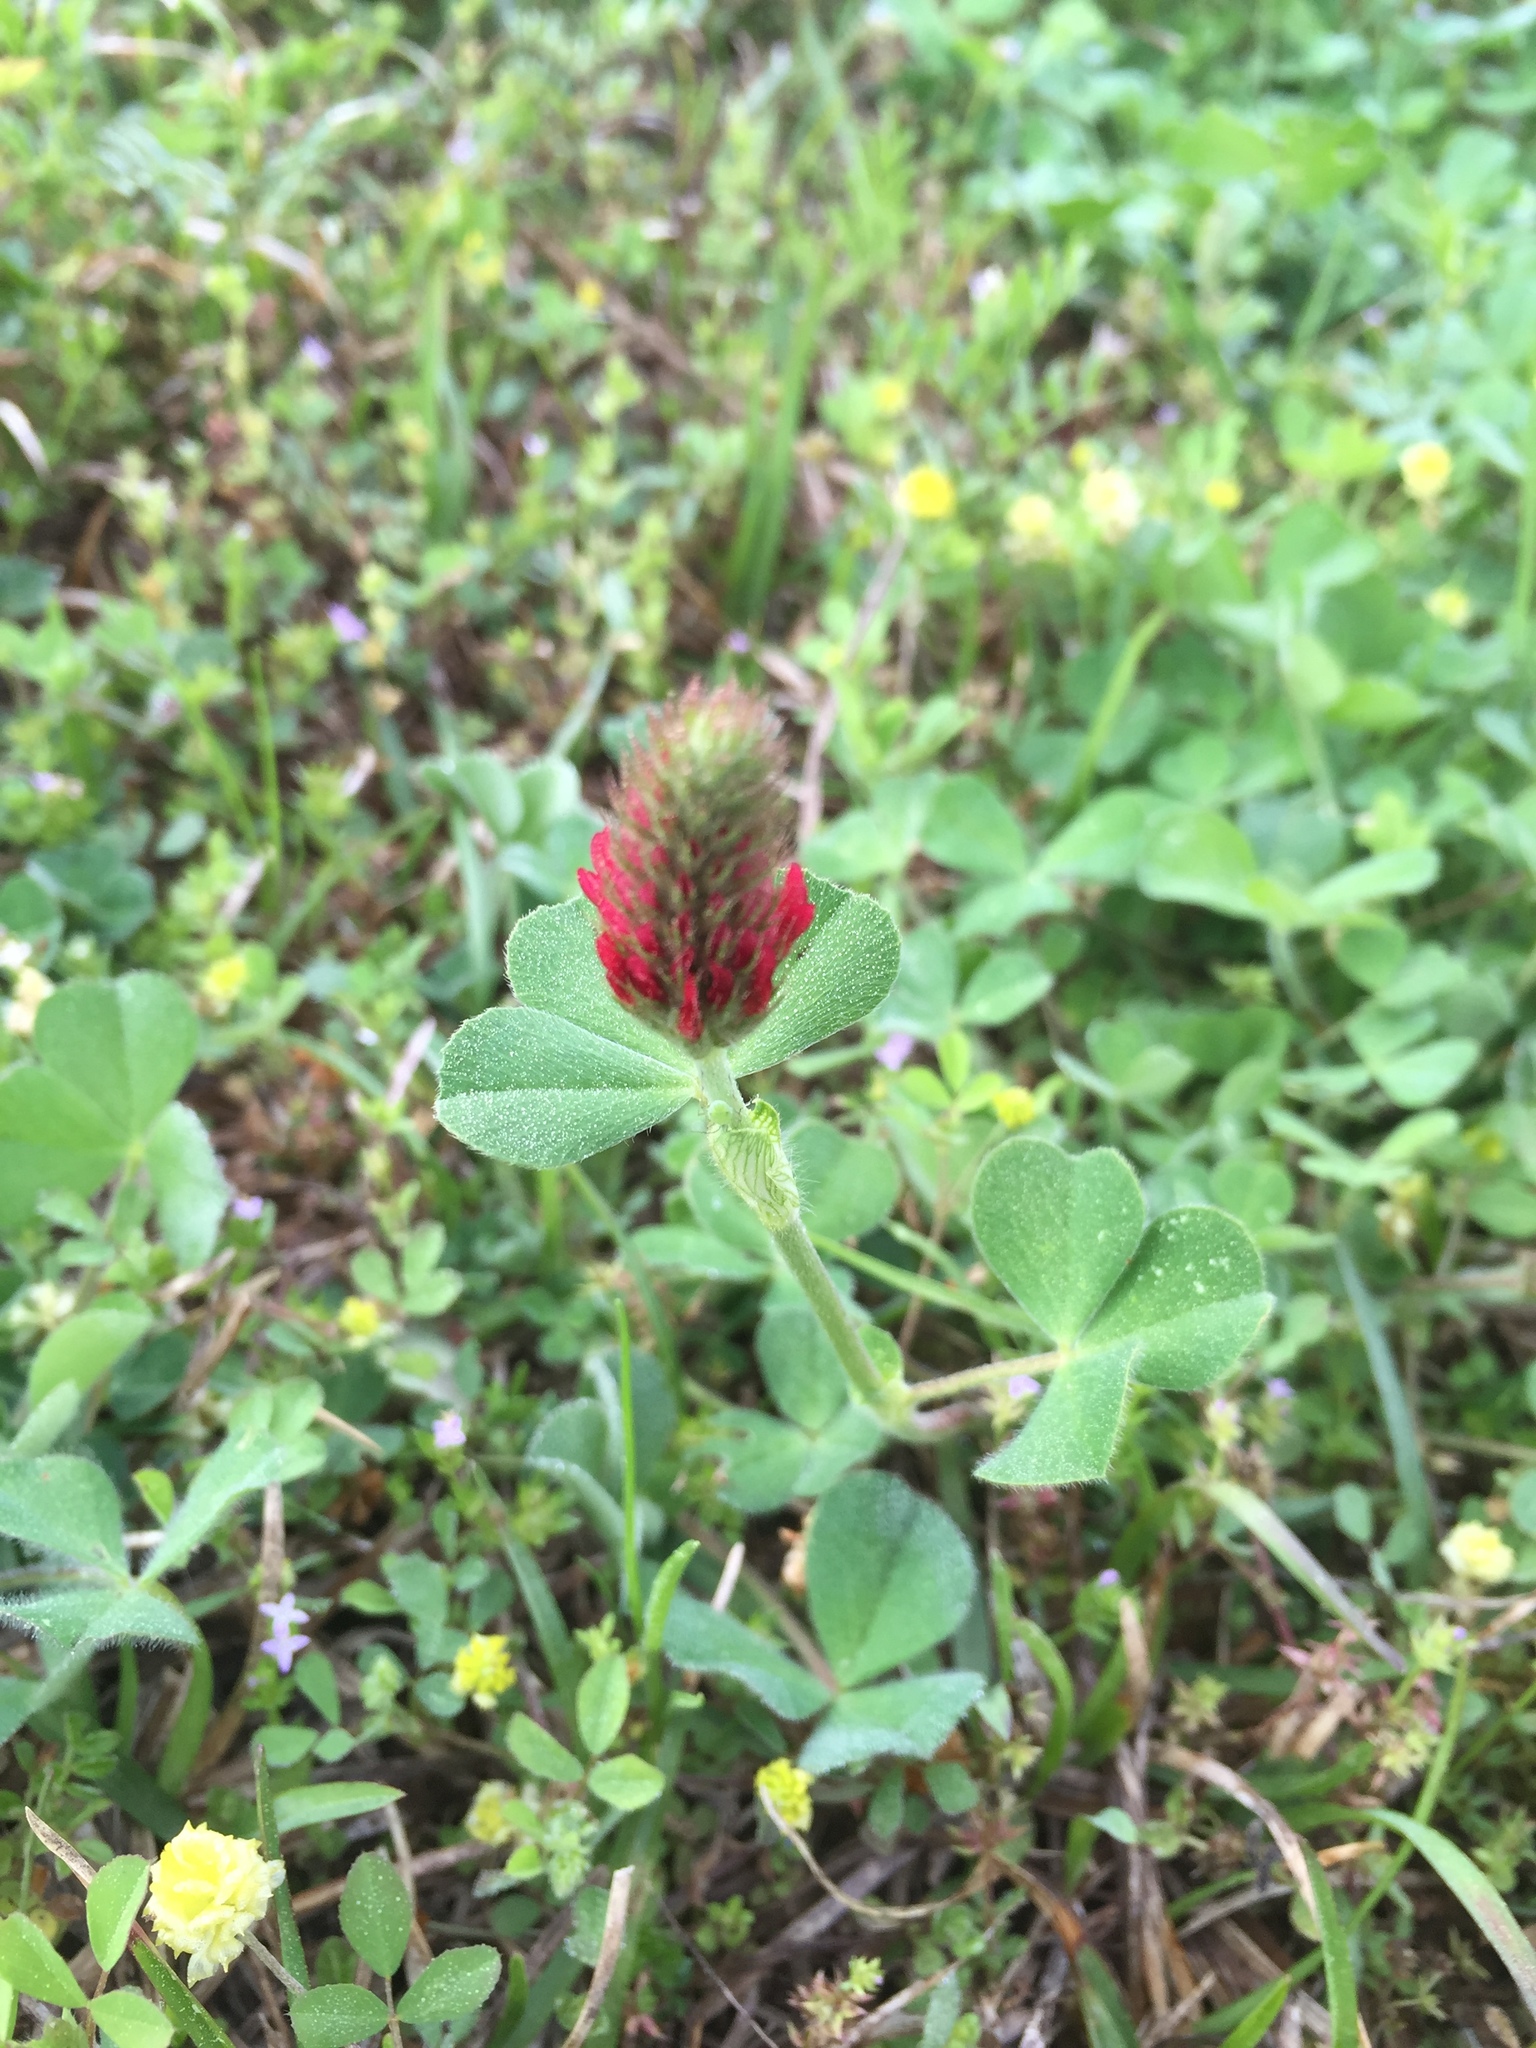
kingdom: Plantae
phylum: Tracheophyta
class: Magnoliopsida
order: Fabales
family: Fabaceae
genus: Trifolium
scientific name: Trifolium incarnatum
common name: Crimson clover
